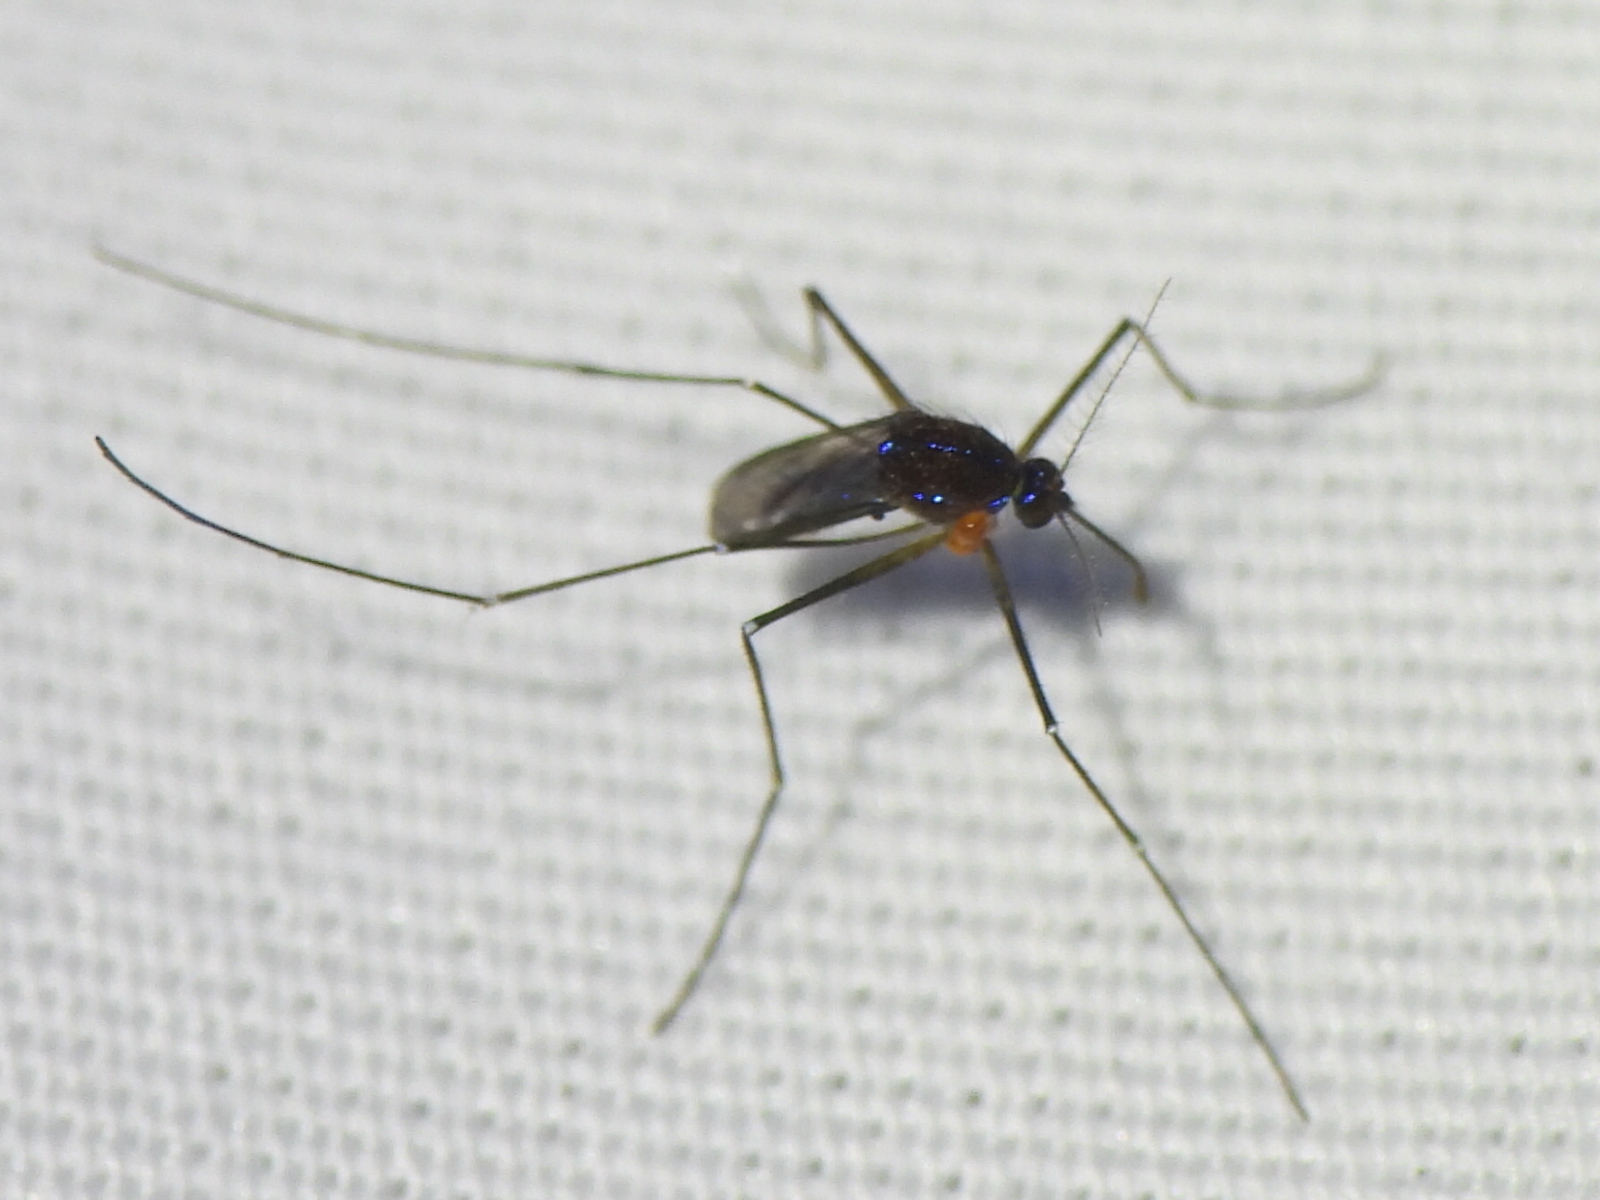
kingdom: Animalia
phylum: Arthropoda
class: Insecta
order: Diptera
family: Culicidae
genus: Uranotaenia
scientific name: Uranotaenia sapphirina
